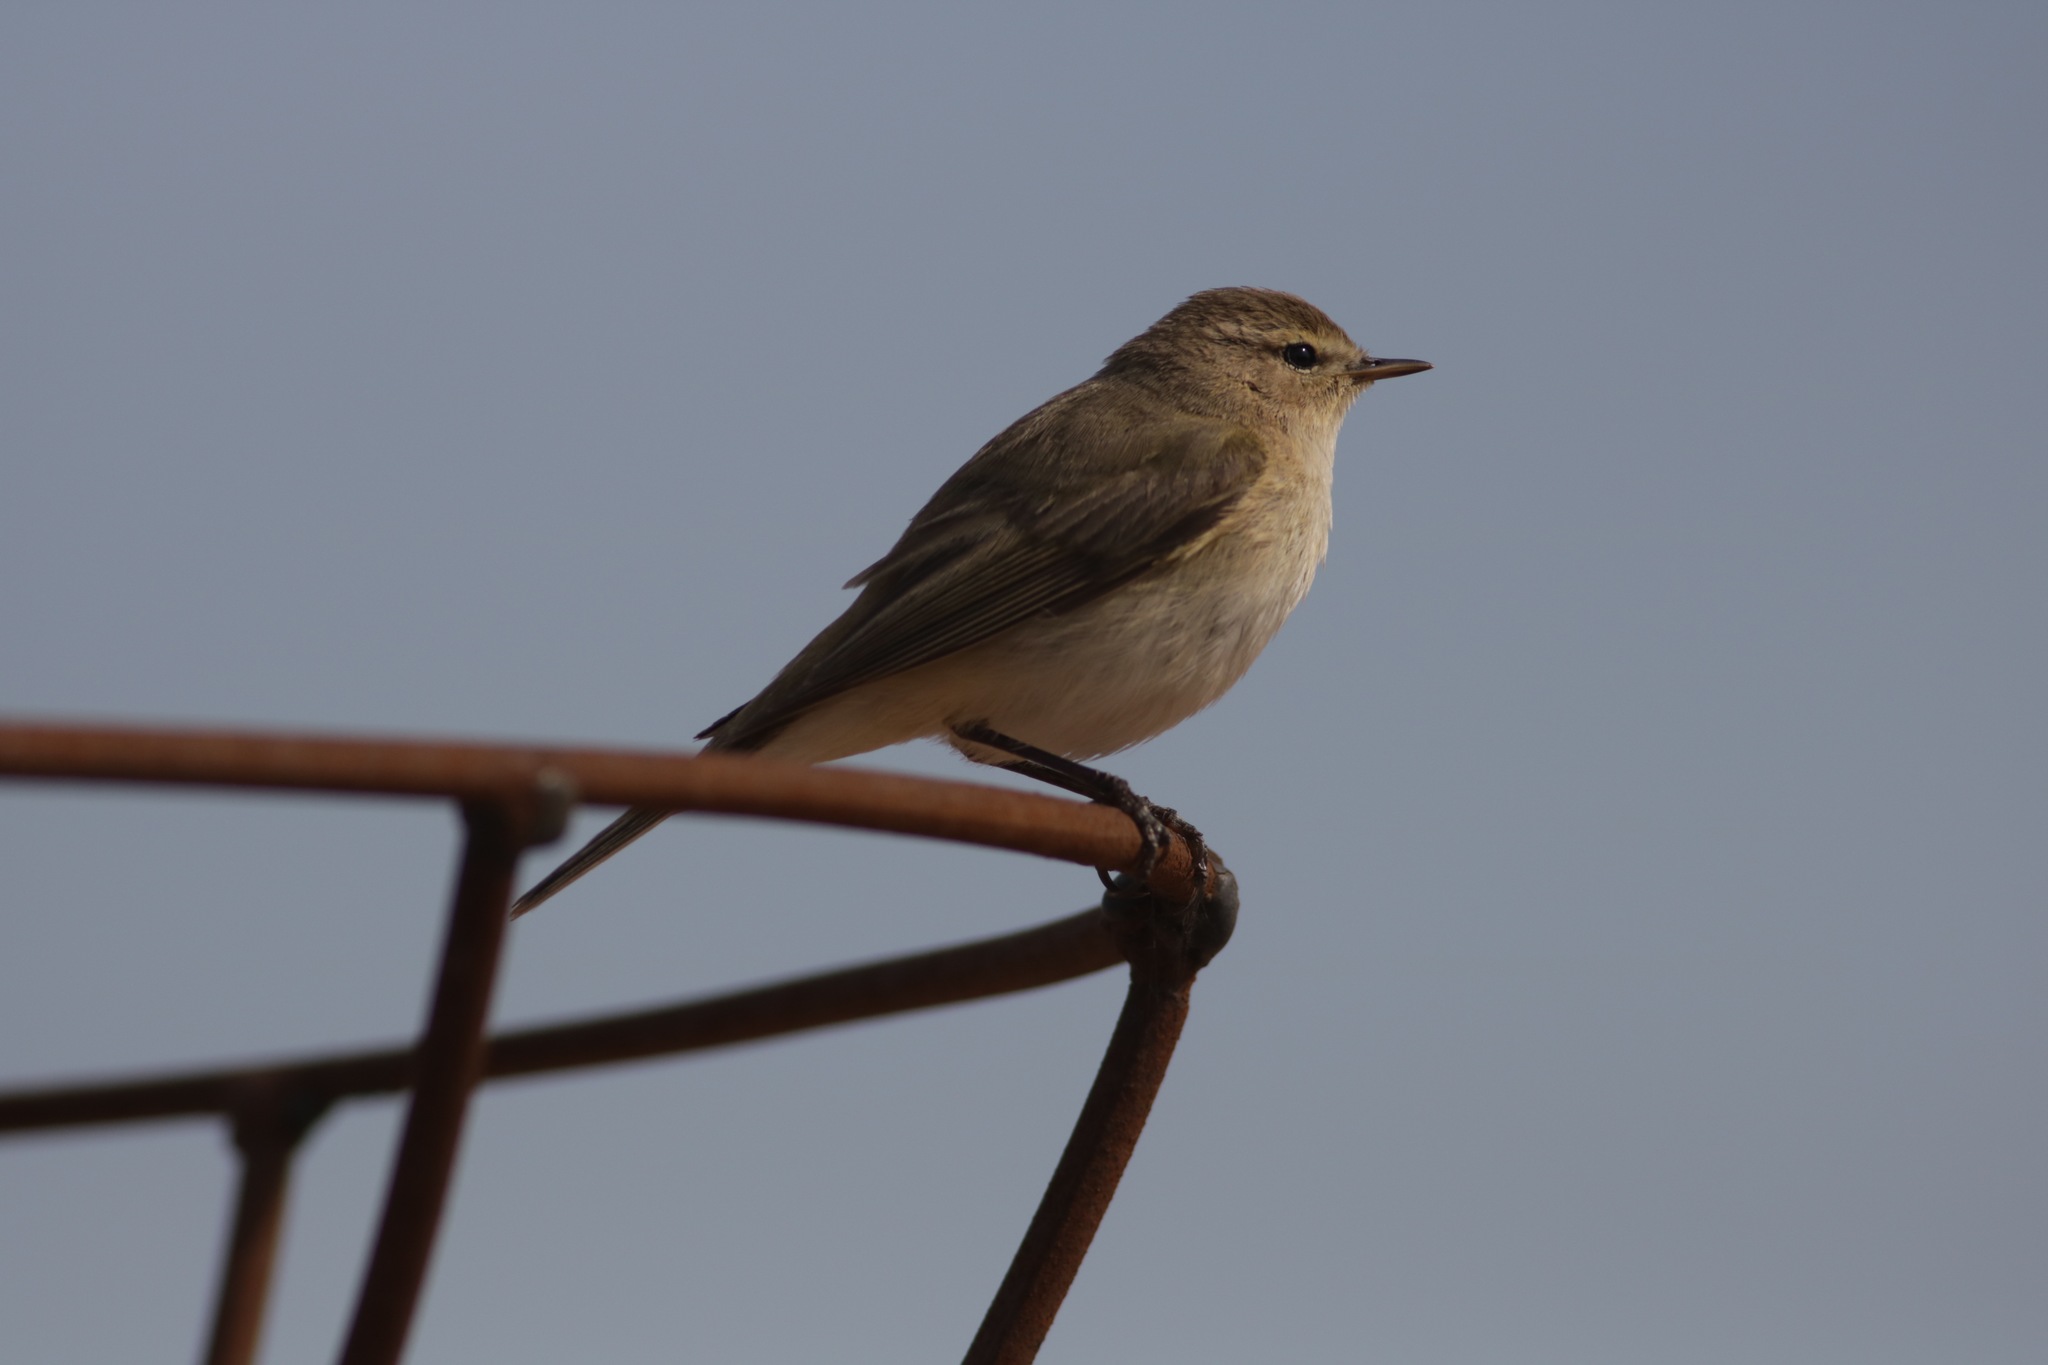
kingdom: Animalia
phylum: Chordata
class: Aves
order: Passeriformes
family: Phylloscopidae
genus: Phylloscopus
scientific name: Phylloscopus collybita
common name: Common chiffchaff
